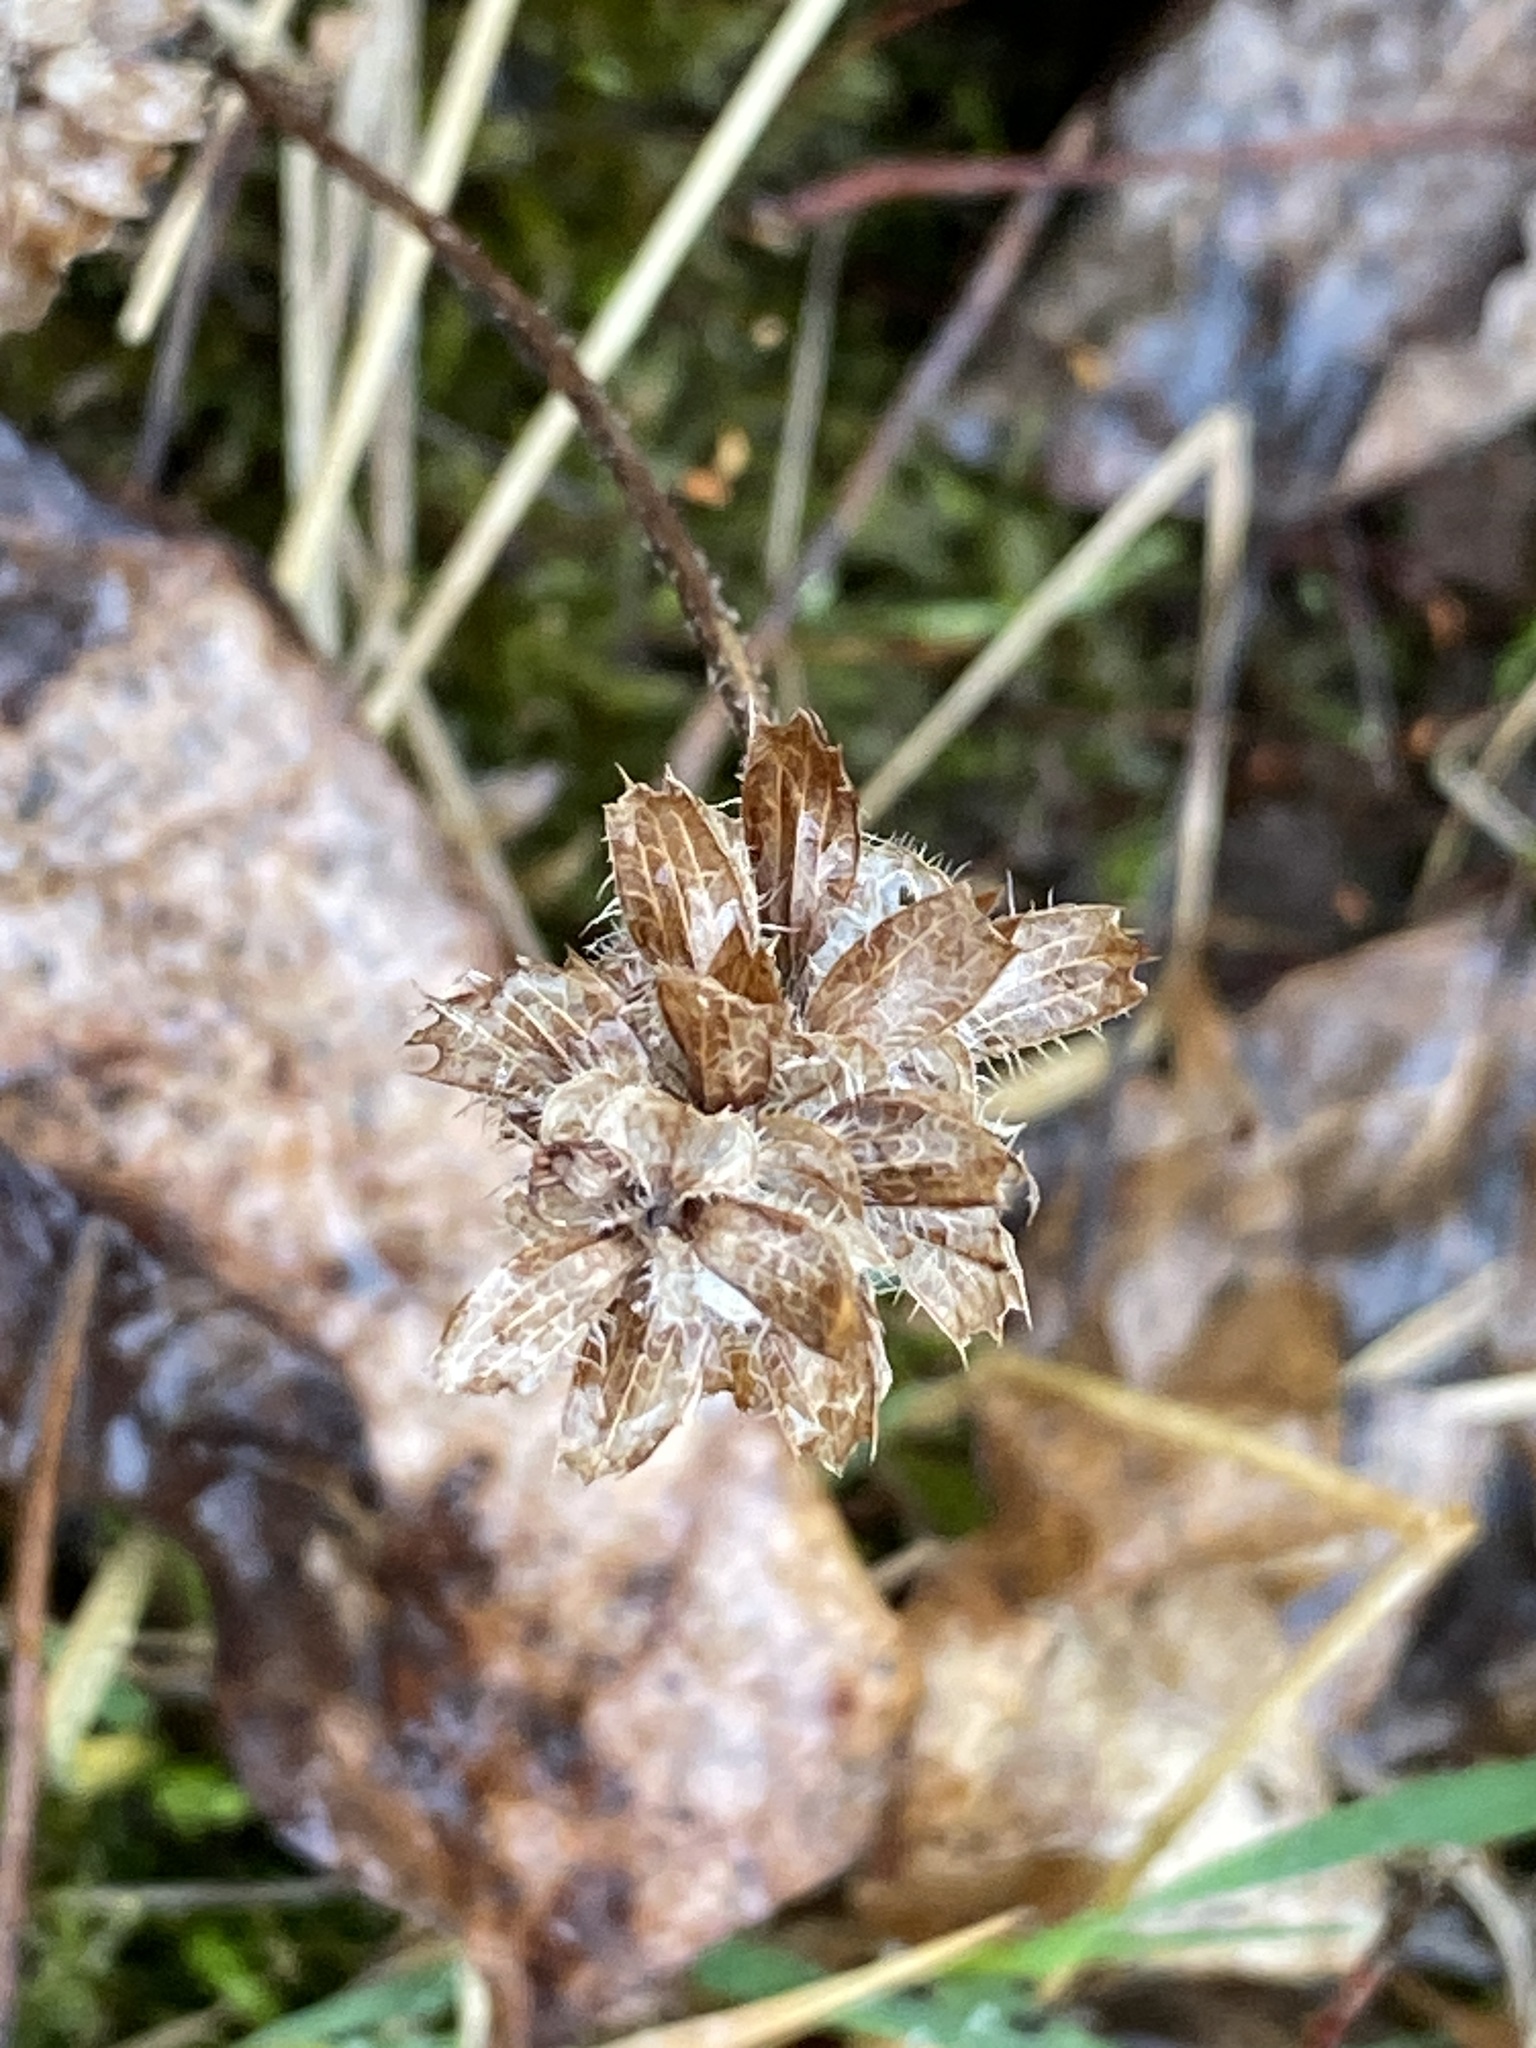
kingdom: Plantae
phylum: Tracheophyta
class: Magnoliopsida
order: Lamiales
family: Lamiaceae
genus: Prunella
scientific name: Prunella vulgaris
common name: Heal-all
